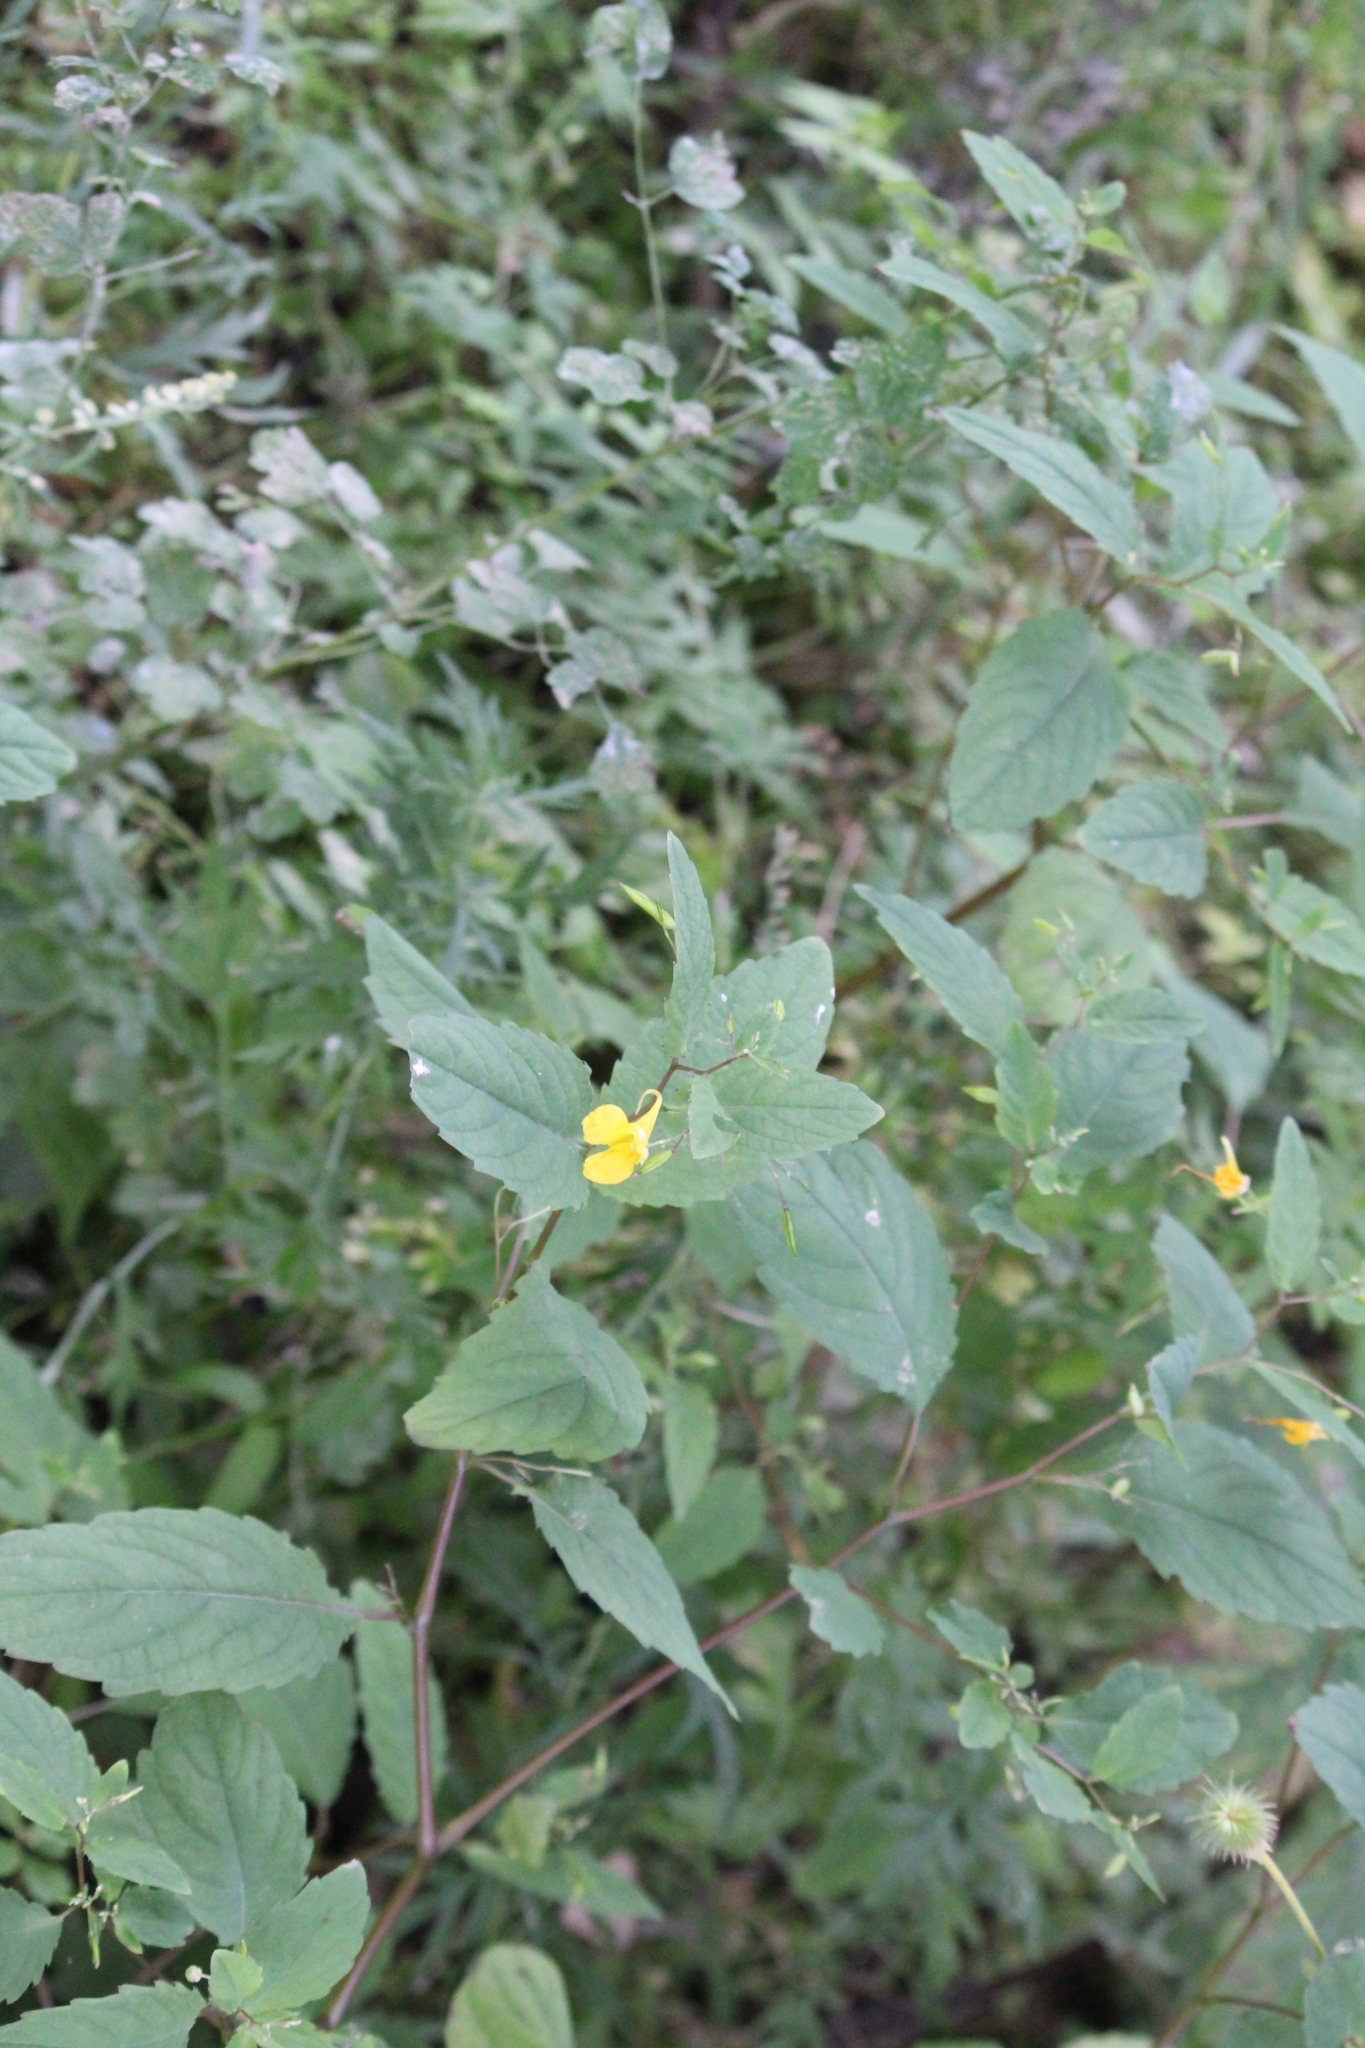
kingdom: Plantae
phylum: Tracheophyta
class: Magnoliopsida
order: Ericales
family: Balsaminaceae
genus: Impatiens
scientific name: Impatiens noli-tangere
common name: Touch-me-not balsam
